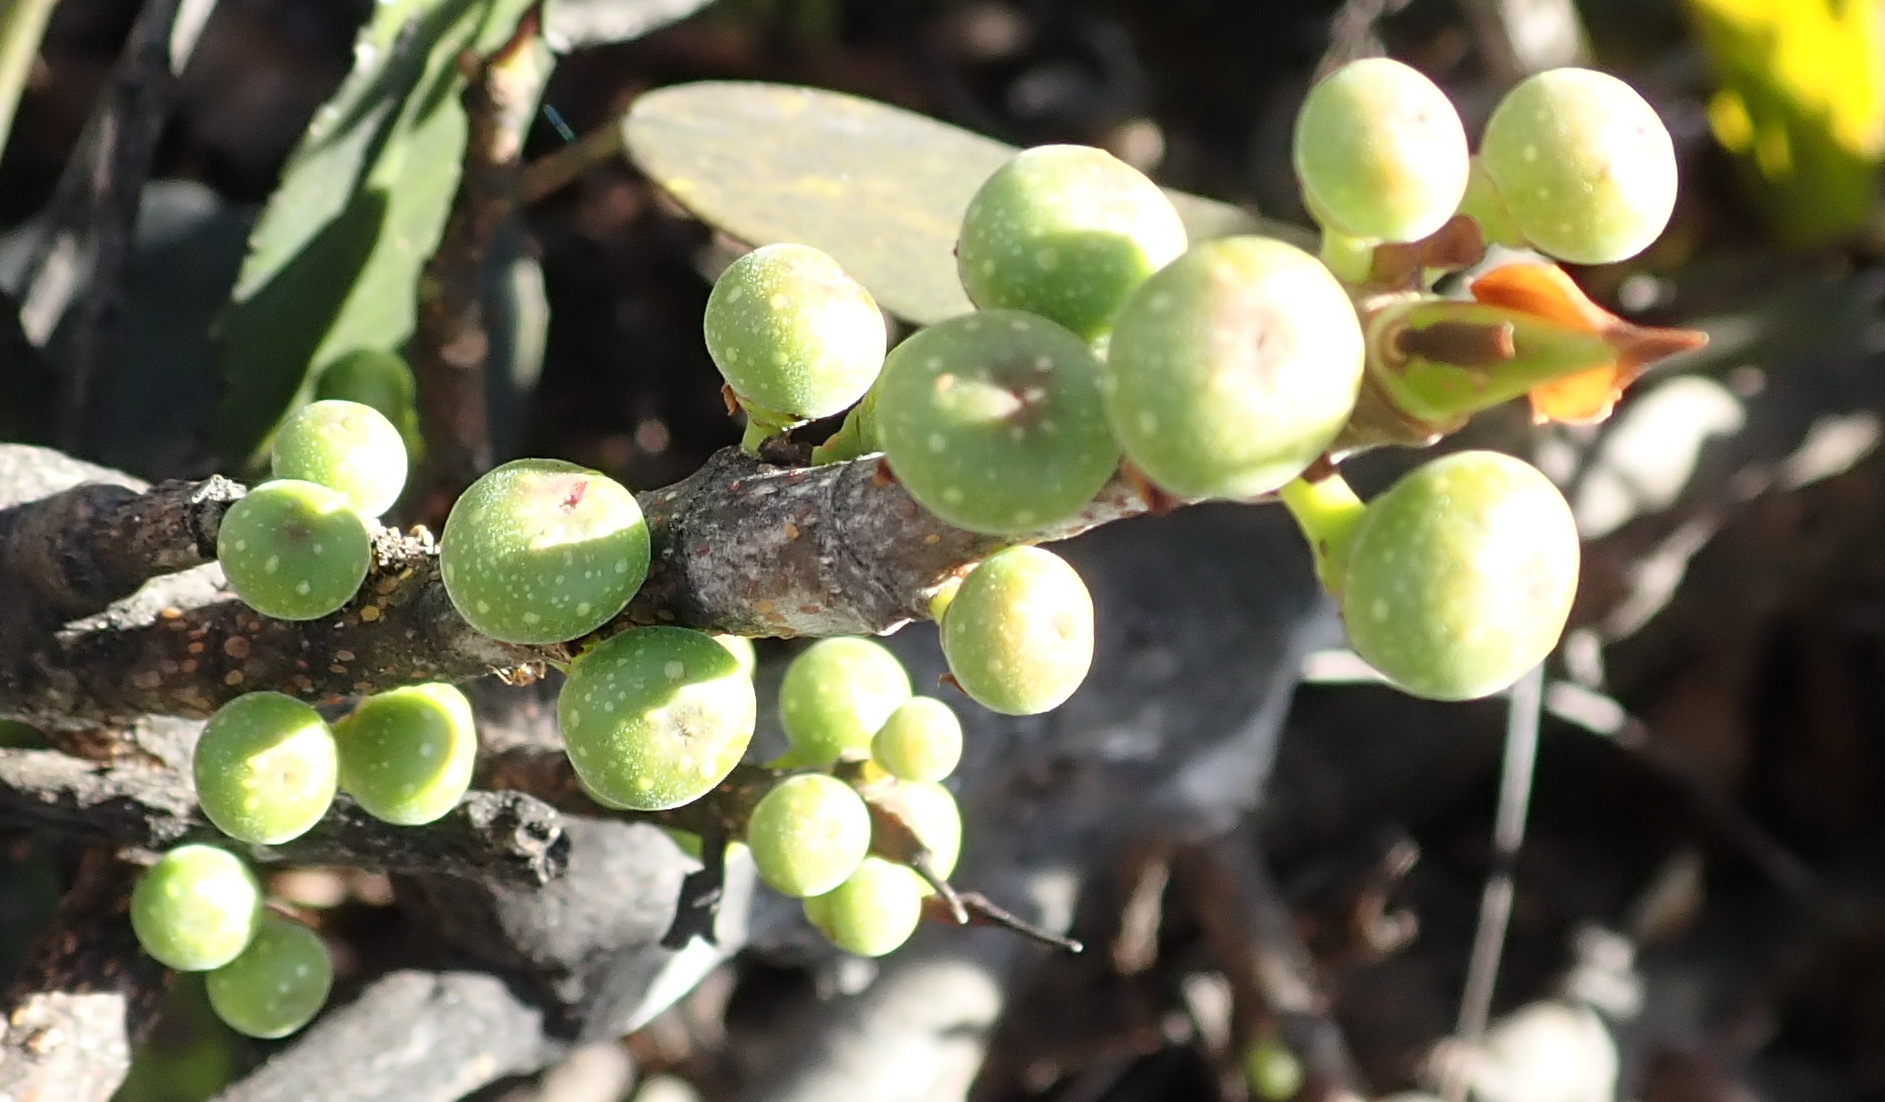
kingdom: Plantae
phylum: Tracheophyta
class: Magnoliopsida
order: Rosales
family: Moraceae
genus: Ficus
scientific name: Ficus burtt-davyi
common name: Scrambling fig
